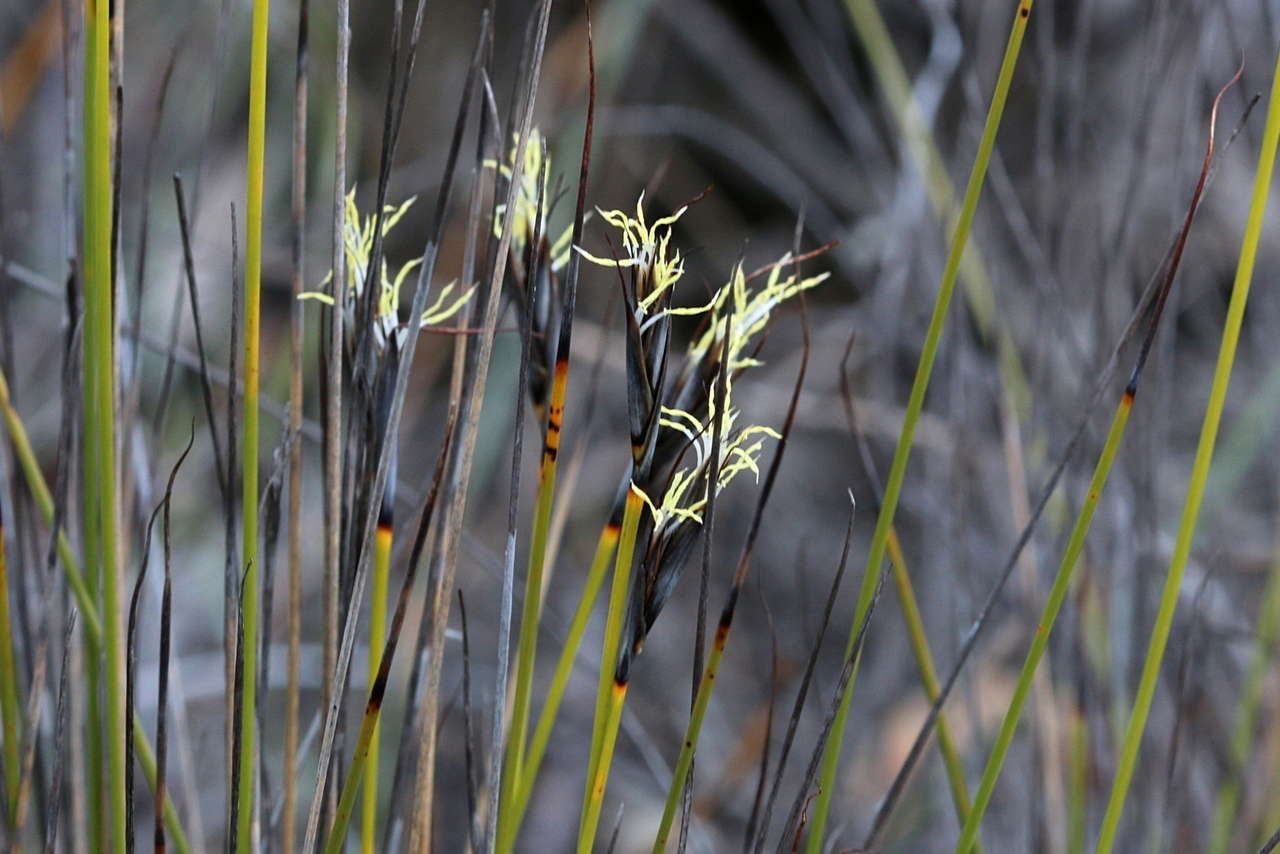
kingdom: Plantae
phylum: Tracheophyta
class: Liliopsida
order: Poales
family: Cyperaceae
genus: Lepidosperma
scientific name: Lepidosperma carphoides
